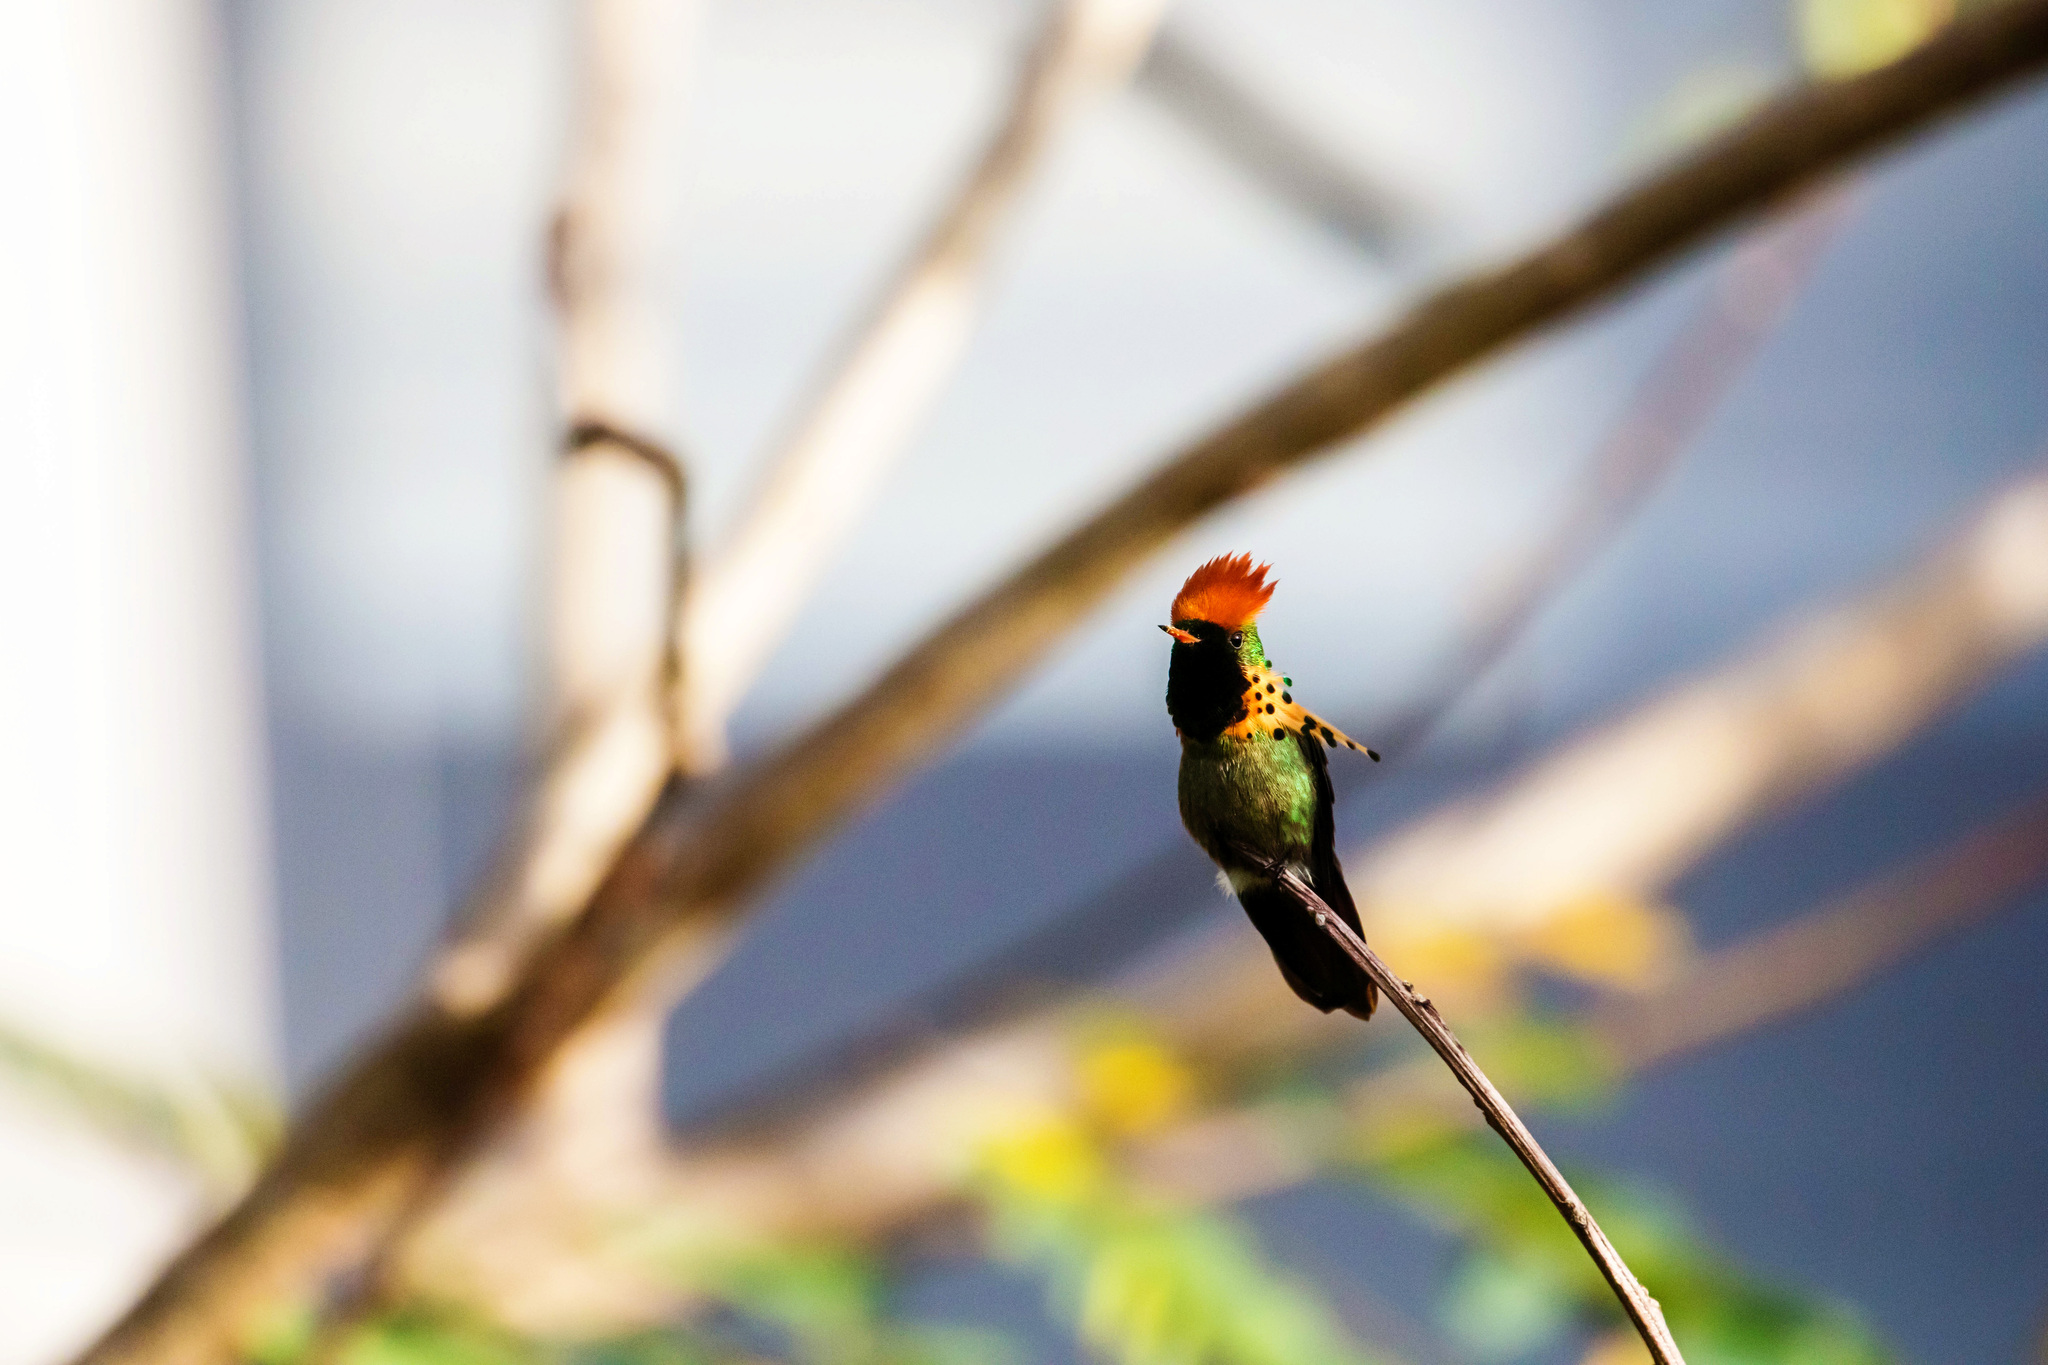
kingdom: Animalia
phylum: Chordata
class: Aves
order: Apodiformes
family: Trochilidae
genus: Lophornis
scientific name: Lophornis ornatus
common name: Tufted coquette
